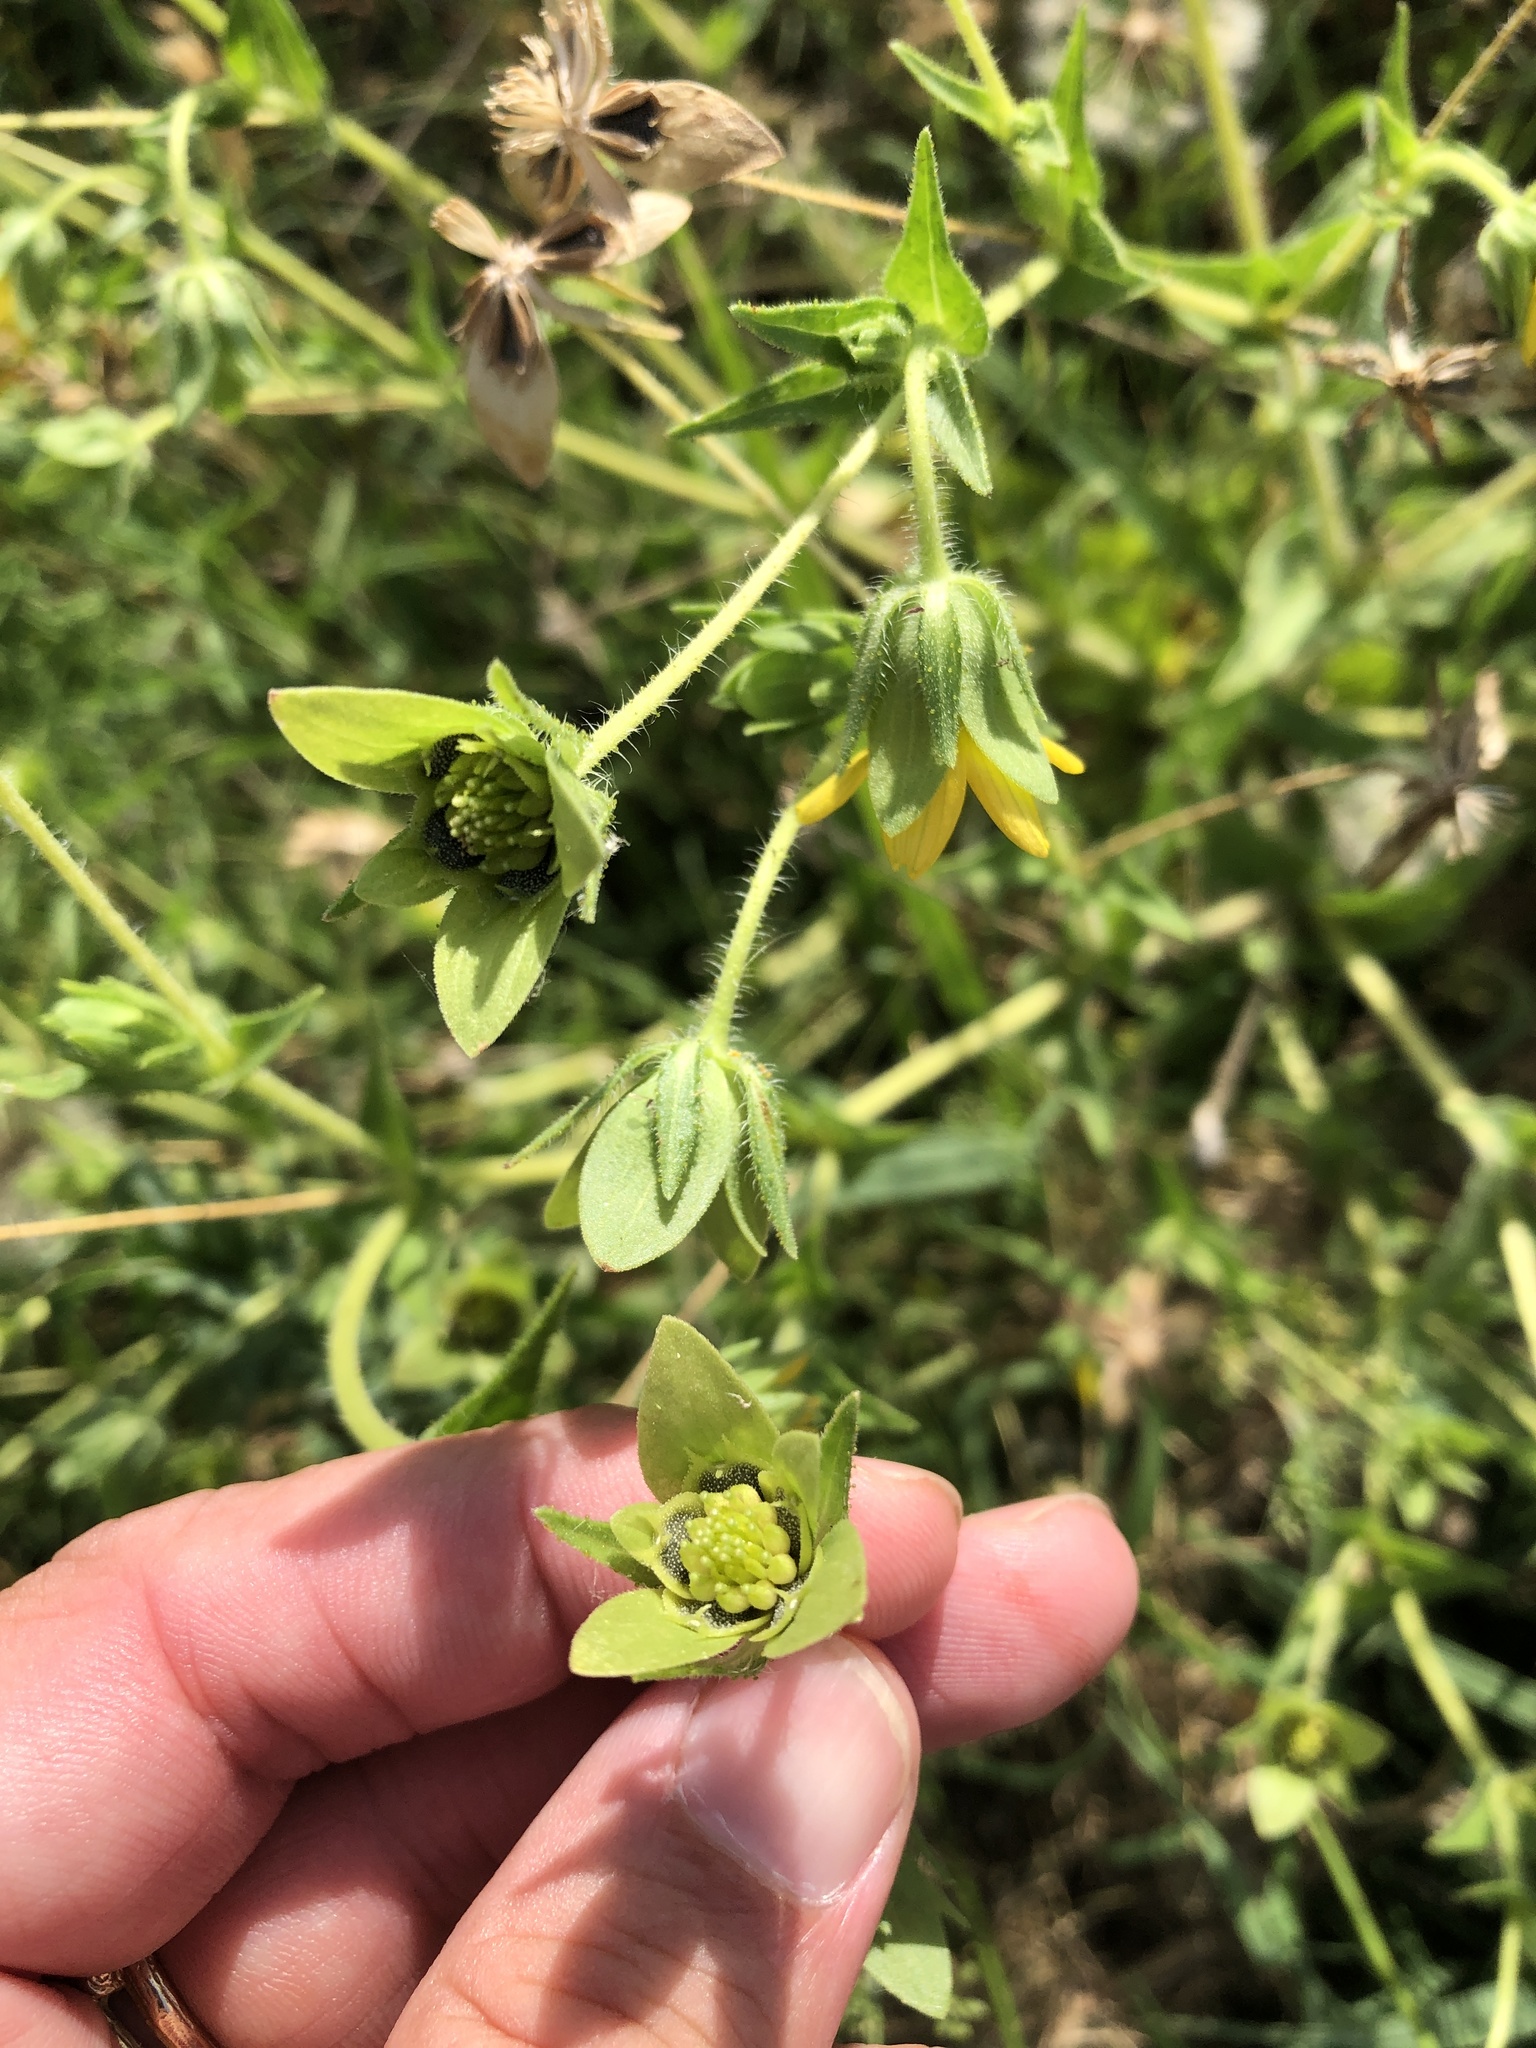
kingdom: Plantae
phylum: Tracheophyta
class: Magnoliopsida
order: Asterales
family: Asteraceae
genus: Lindheimera
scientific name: Lindheimera texana
